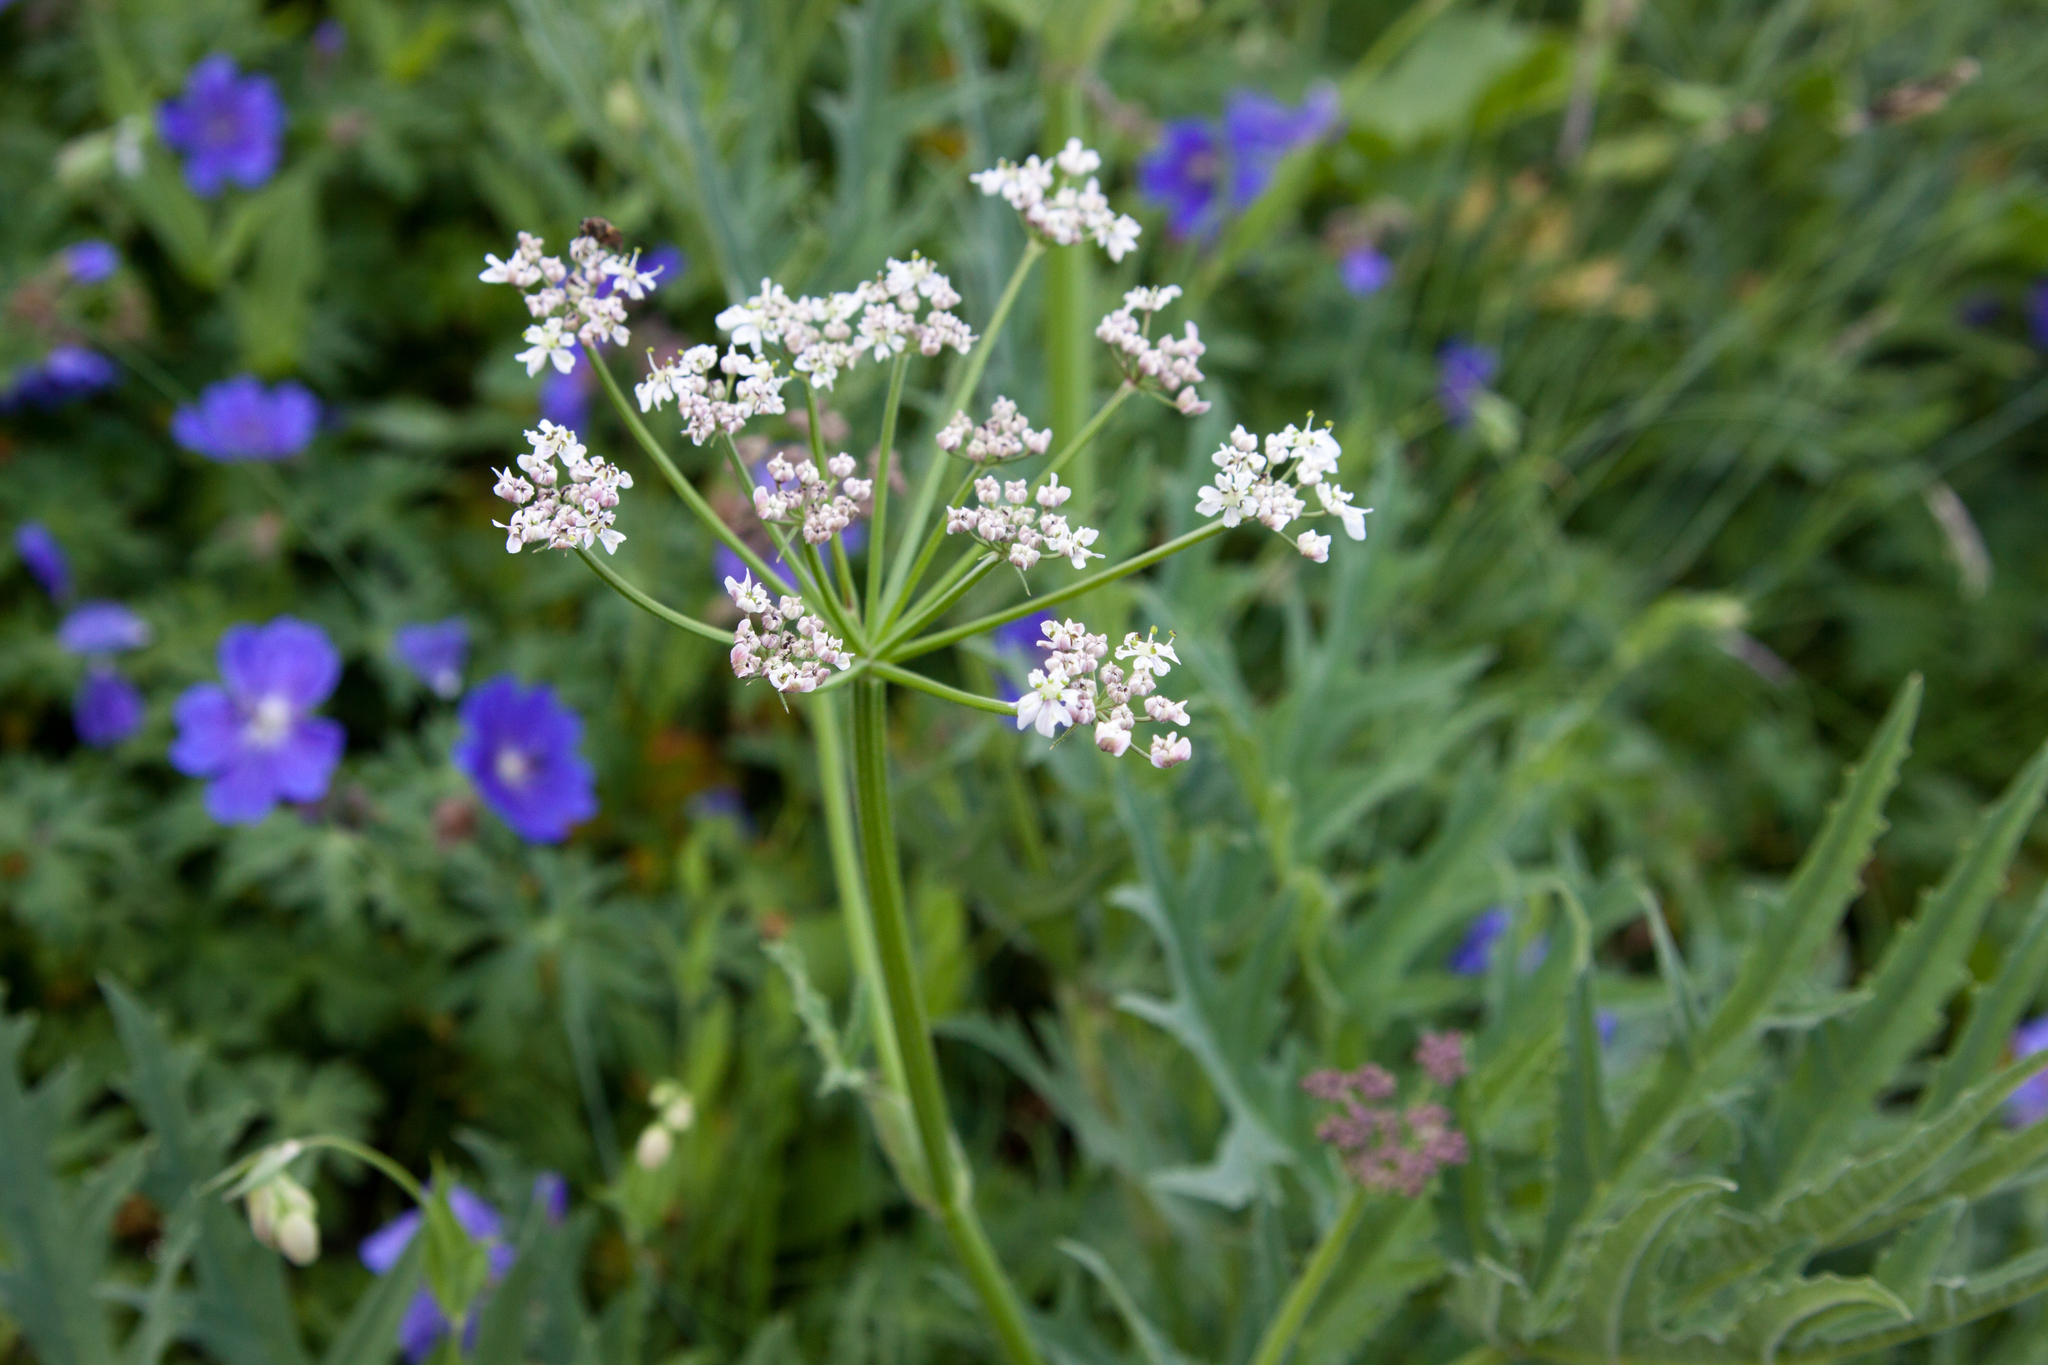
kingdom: Plantae
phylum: Tracheophyta
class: Magnoliopsida
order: Apiales
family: Apiaceae
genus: Heracleum
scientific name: Heracleum freynianum
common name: Freyn's cow-parsnip
